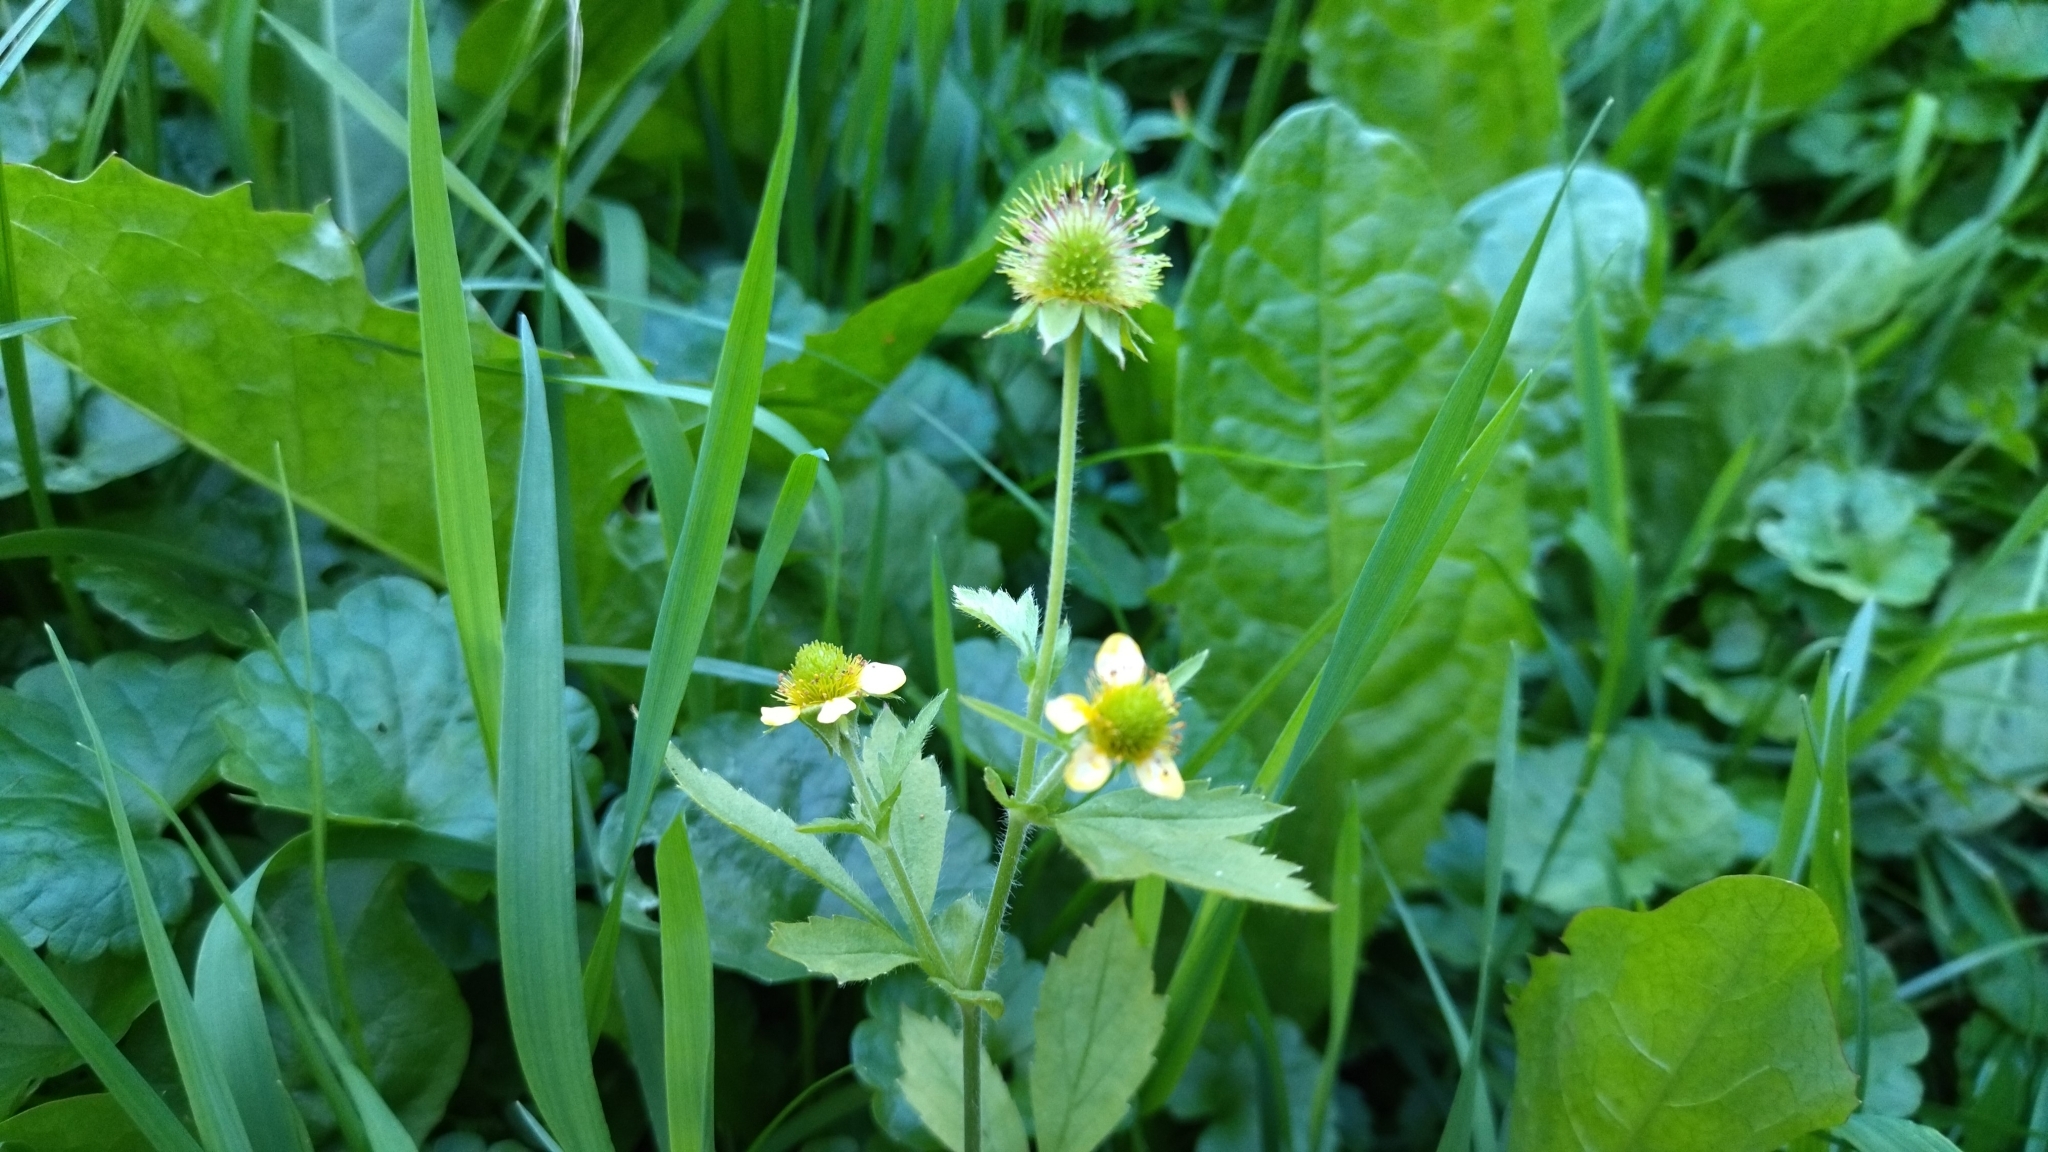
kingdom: Plantae
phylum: Tracheophyta
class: Magnoliopsida
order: Rosales
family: Rosaceae
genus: Geum
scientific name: Geum aleppicum
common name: Yellow avens
